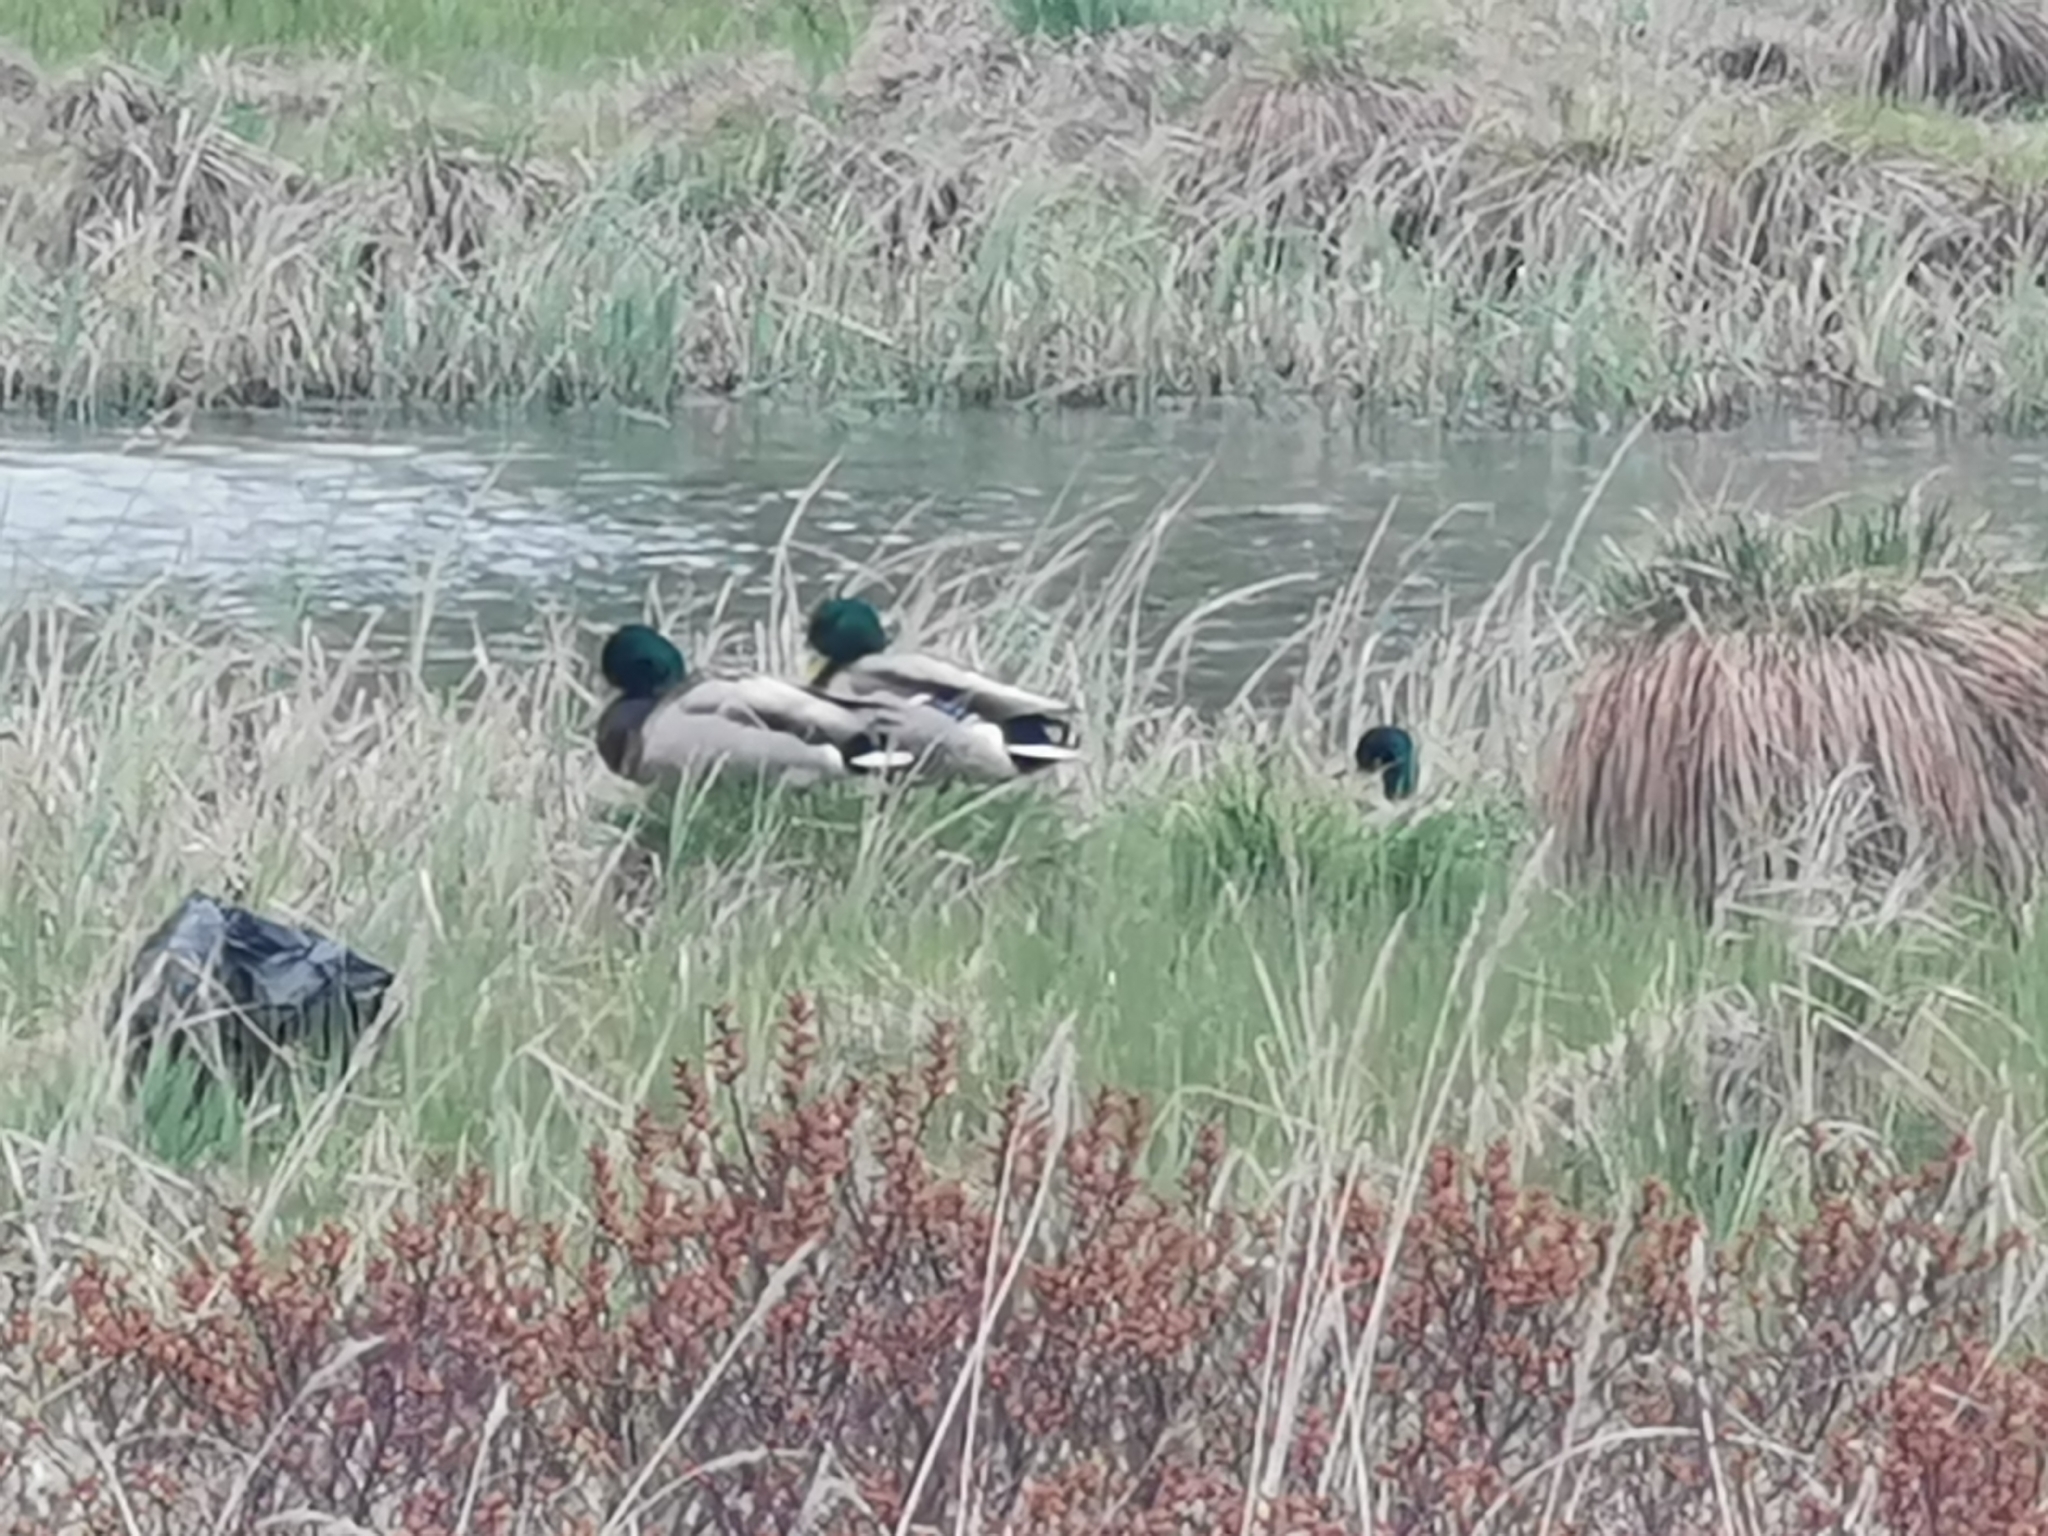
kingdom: Animalia
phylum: Chordata
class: Aves
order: Anseriformes
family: Anatidae
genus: Anas
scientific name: Anas platyrhynchos
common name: Mallard
